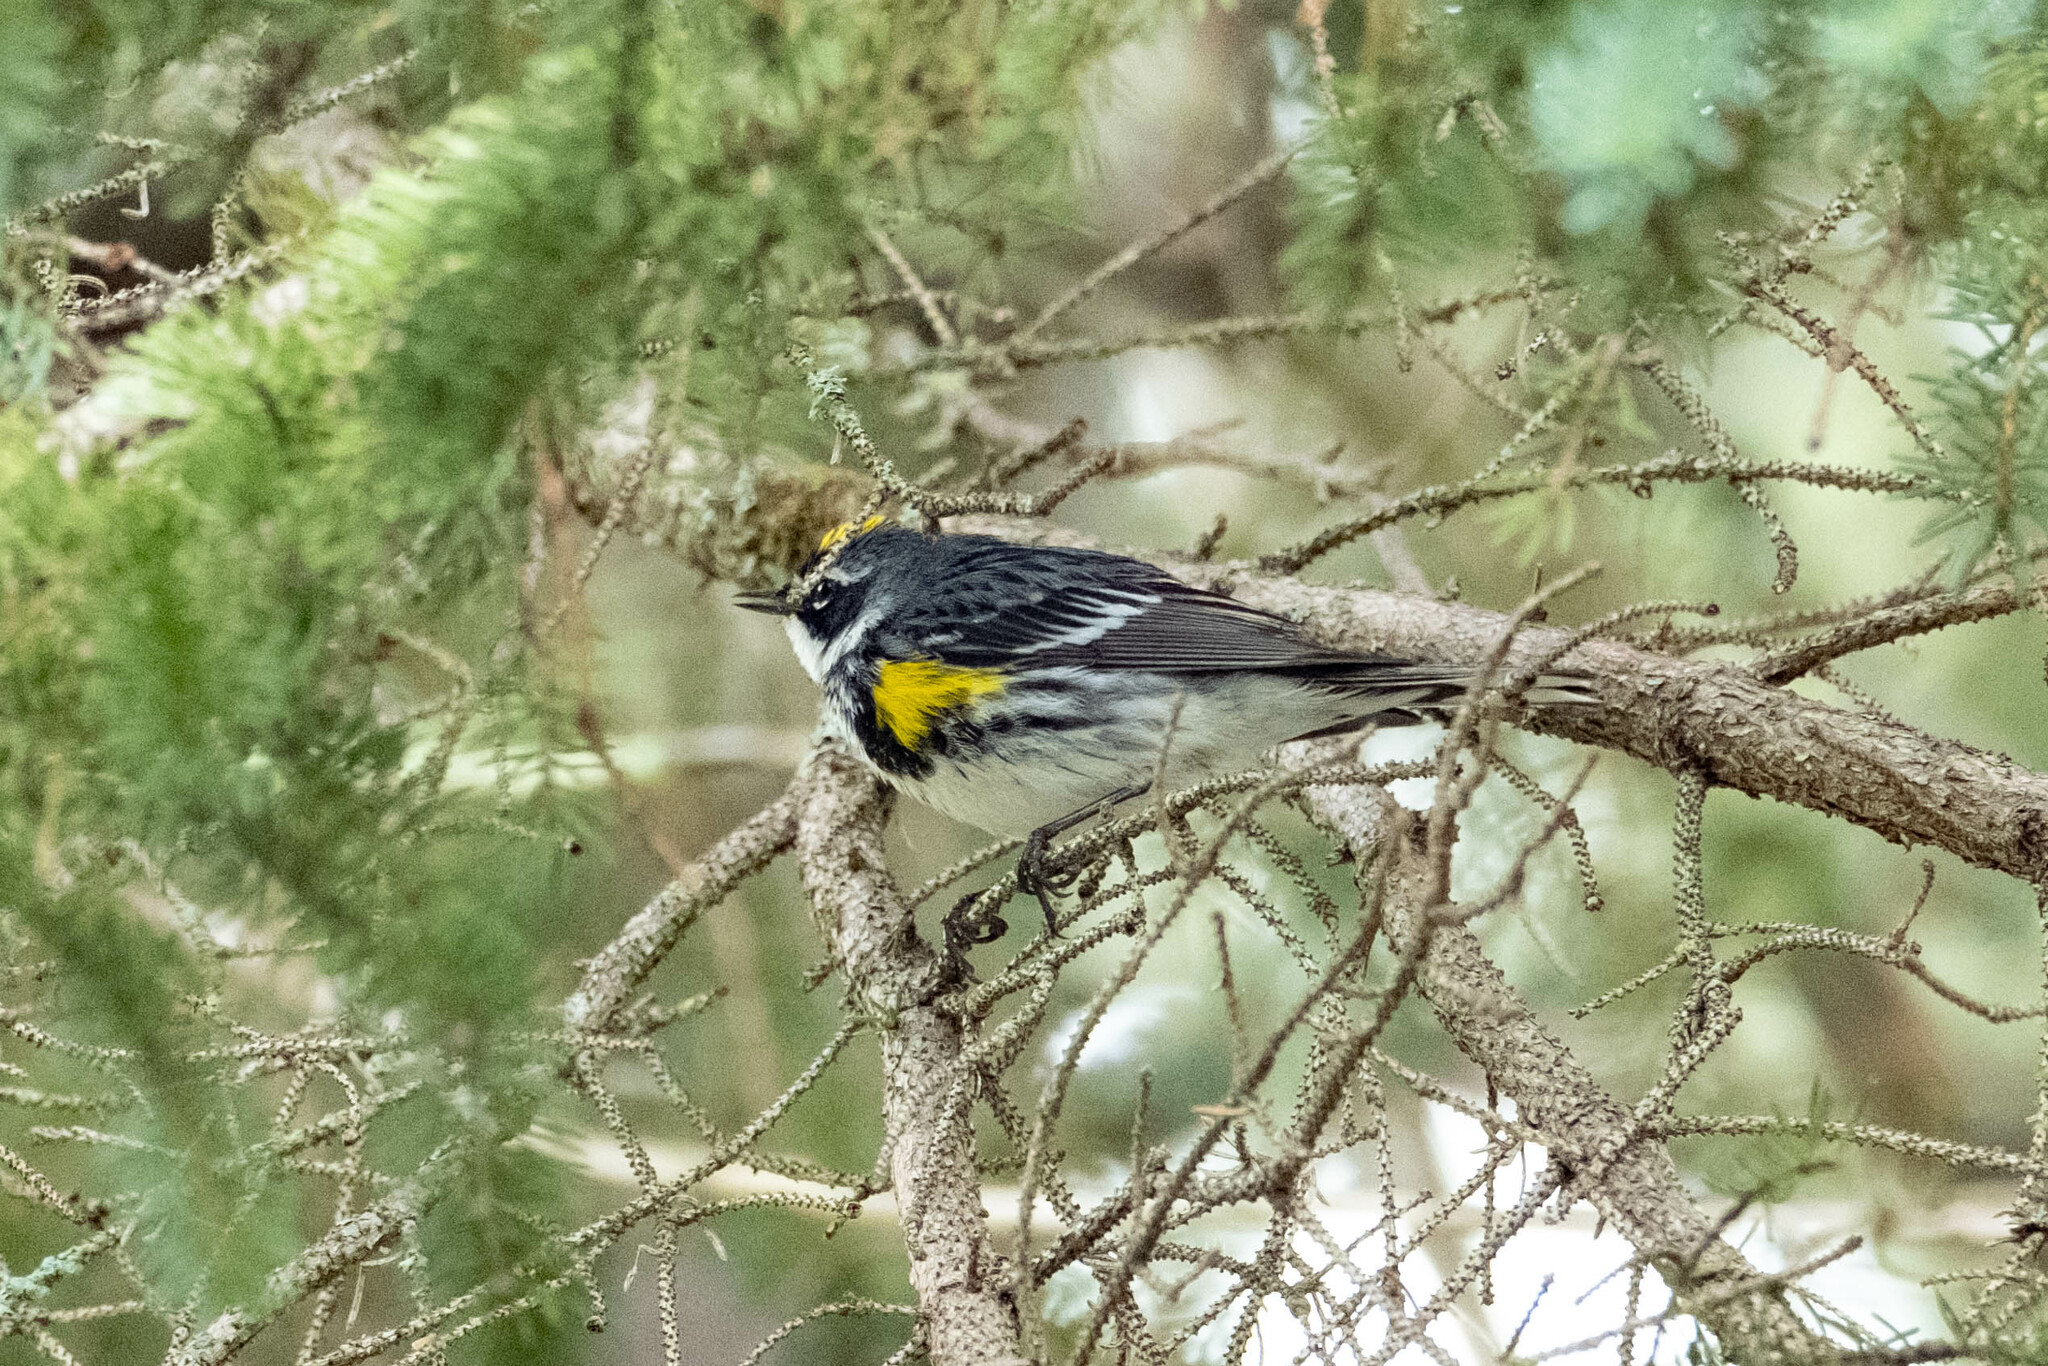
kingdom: Animalia
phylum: Chordata
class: Aves
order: Passeriformes
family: Parulidae
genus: Setophaga
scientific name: Setophaga coronata
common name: Myrtle warbler
